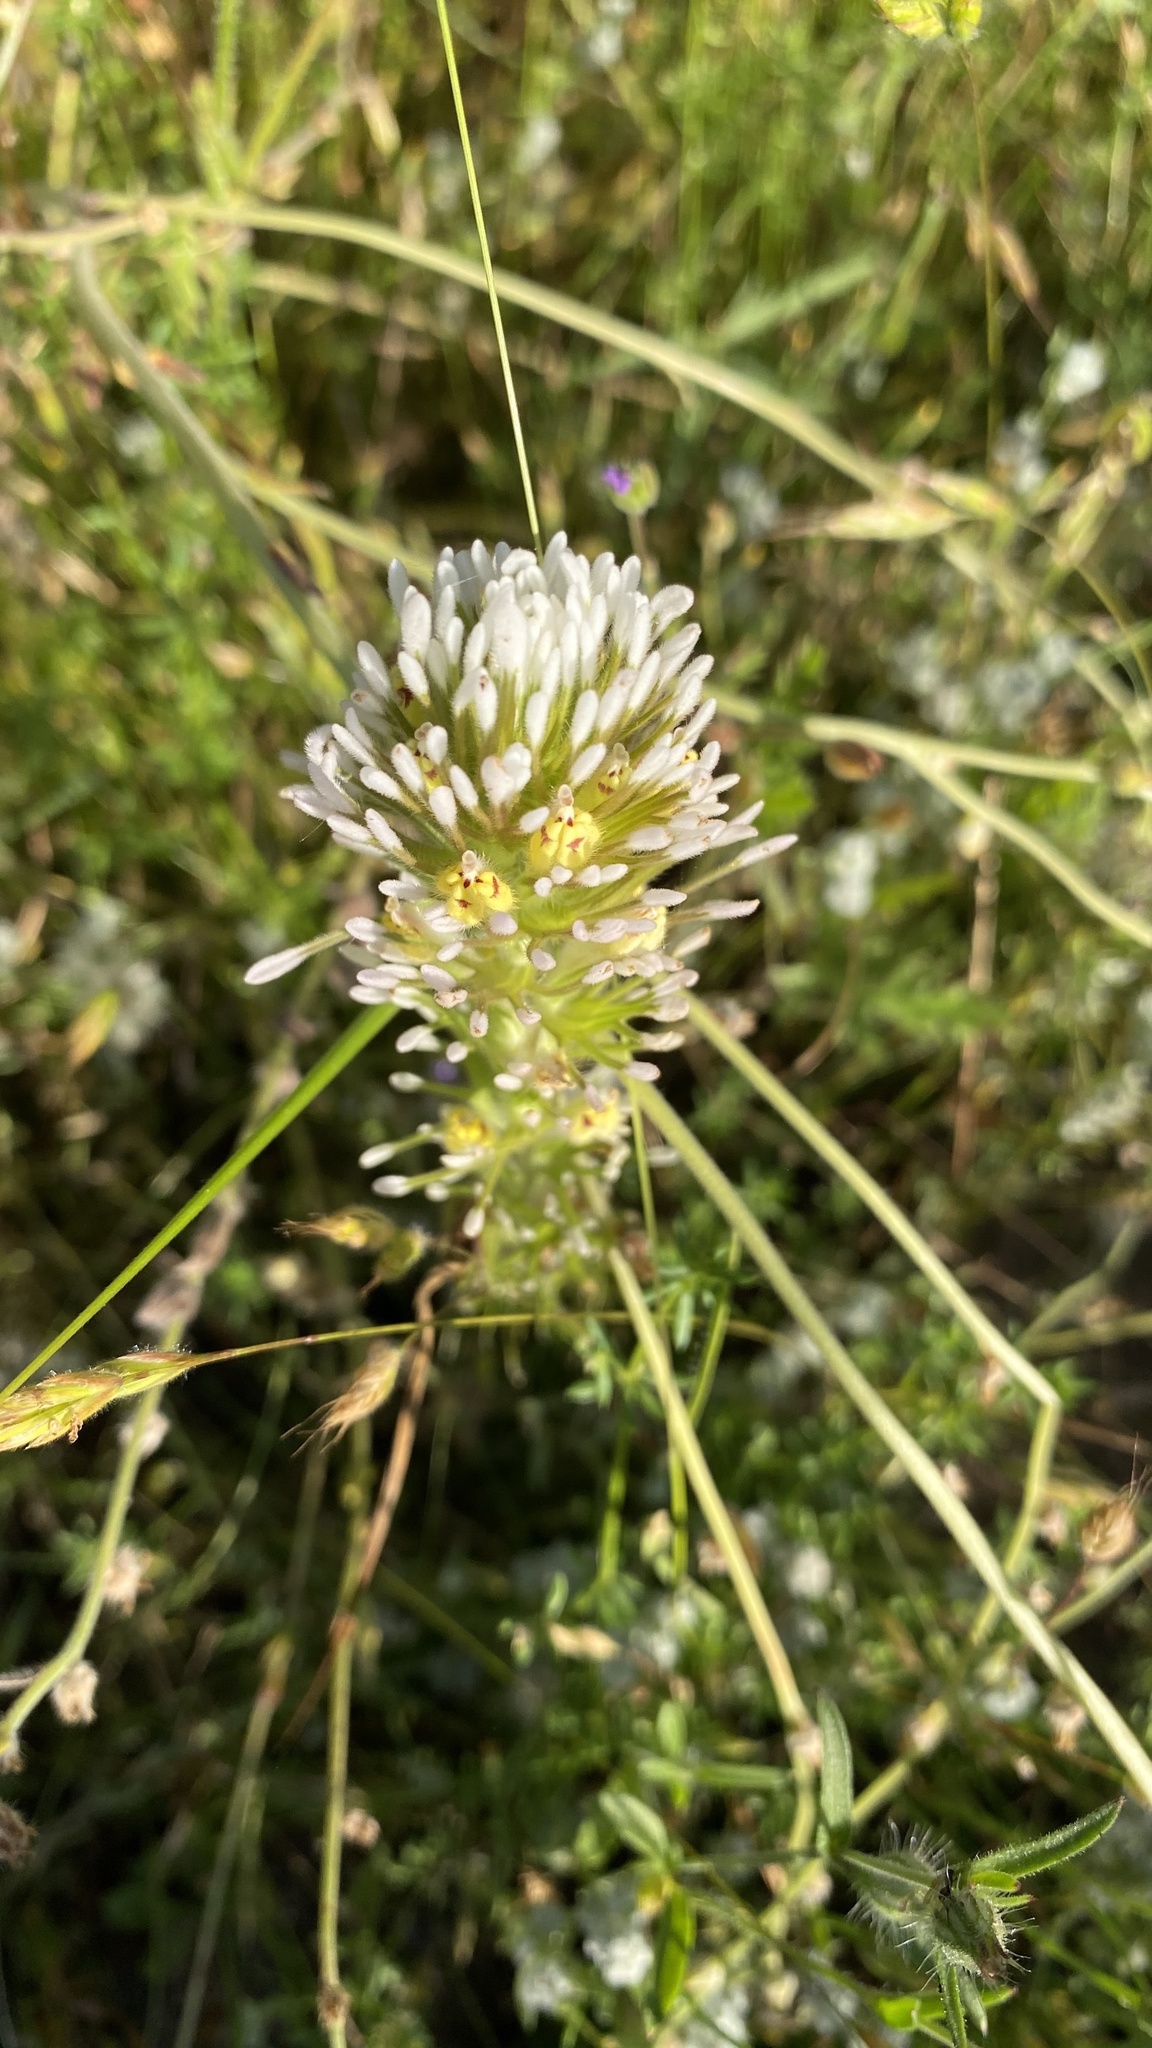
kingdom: Plantae
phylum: Tracheophyta
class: Magnoliopsida
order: Lamiales
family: Orobanchaceae
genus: Castilleja
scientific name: Castilleja attenuata
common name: Valley tassels
